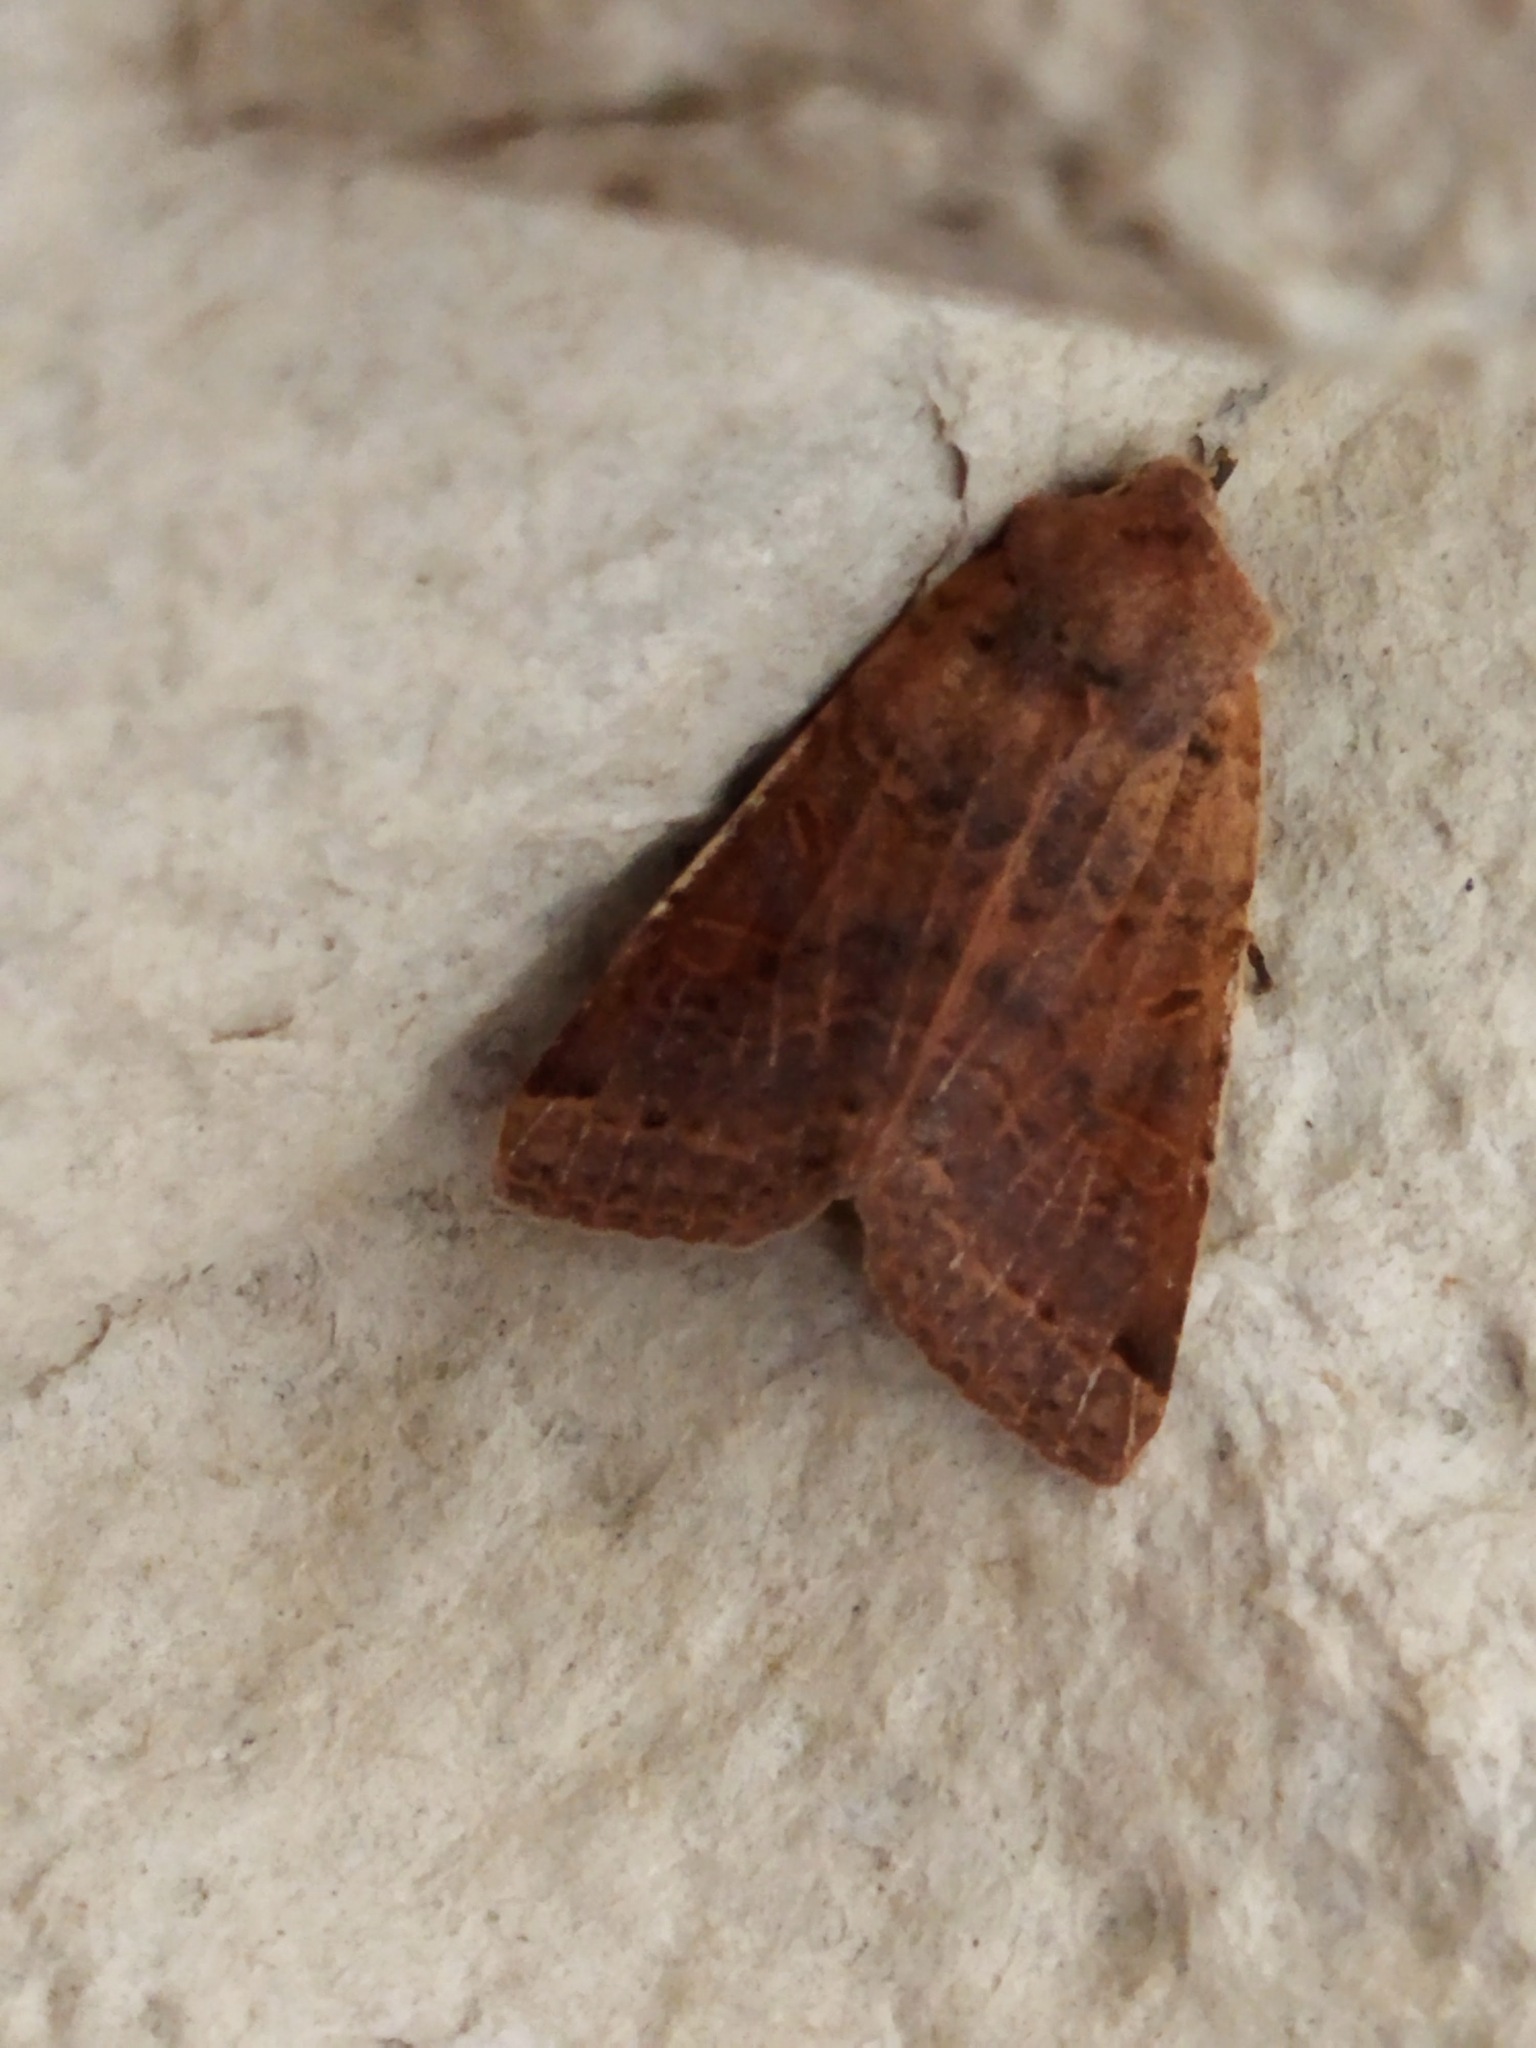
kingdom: Animalia
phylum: Arthropoda
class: Insecta
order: Lepidoptera
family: Noctuidae
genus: Agrochola
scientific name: Agrochola lychnidis
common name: Beaded chestnut
